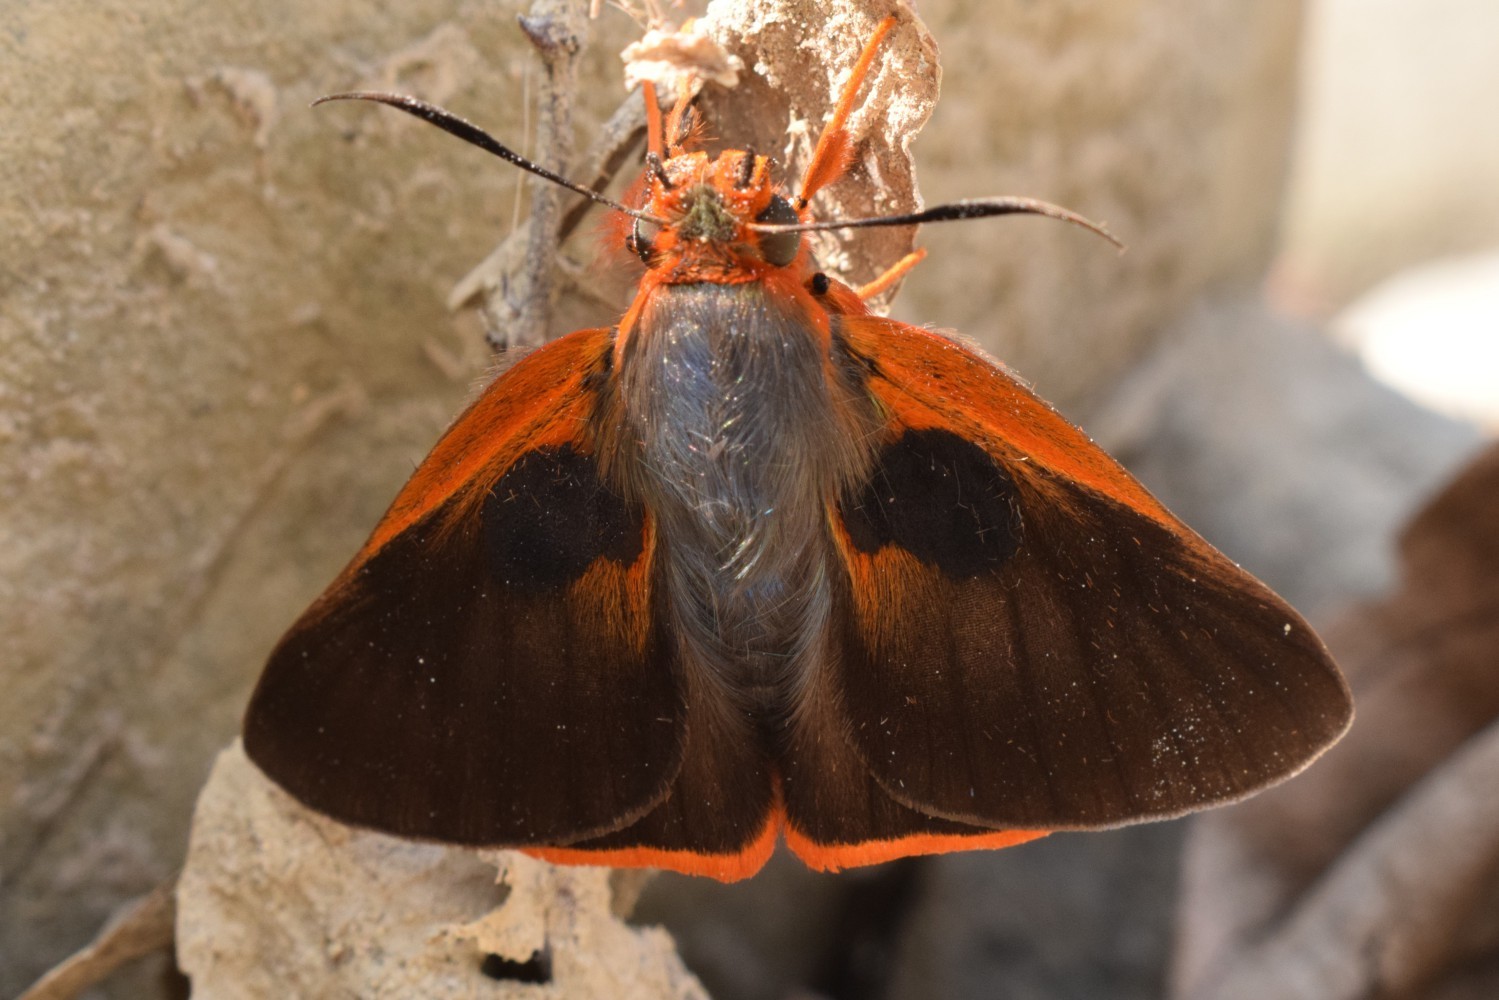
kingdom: Animalia
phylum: Arthropoda
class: Insecta
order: Lepidoptera
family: Hesperiidae
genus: Bibasis
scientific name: Bibasis harisa
